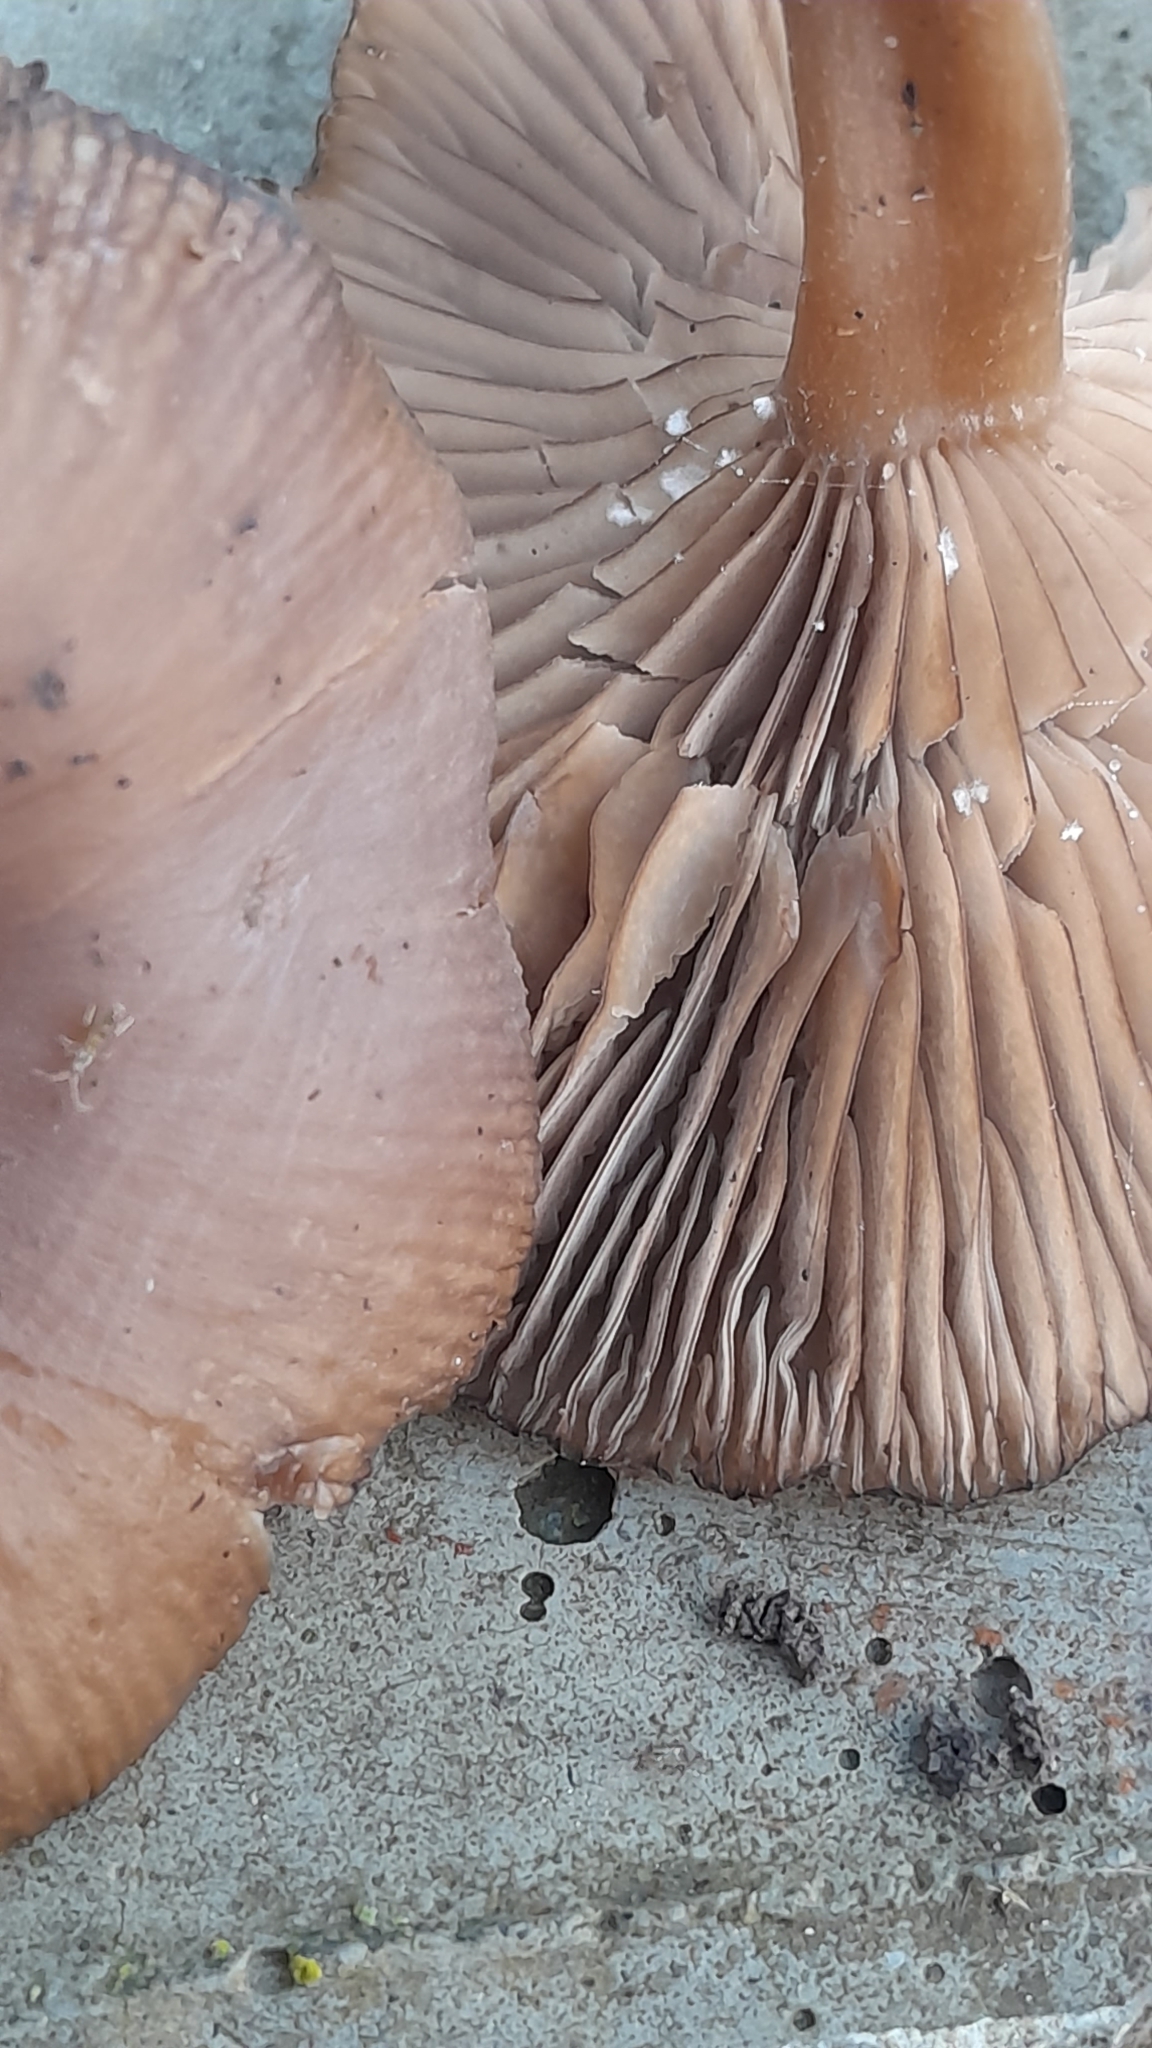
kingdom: Fungi
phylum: Basidiomycota
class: Agaricomycetes
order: Agaricales
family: Pseudoclitocybaceae
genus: Pseudoclitocybe
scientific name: Pseudoclitocybe cyathiformis
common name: Goblet
